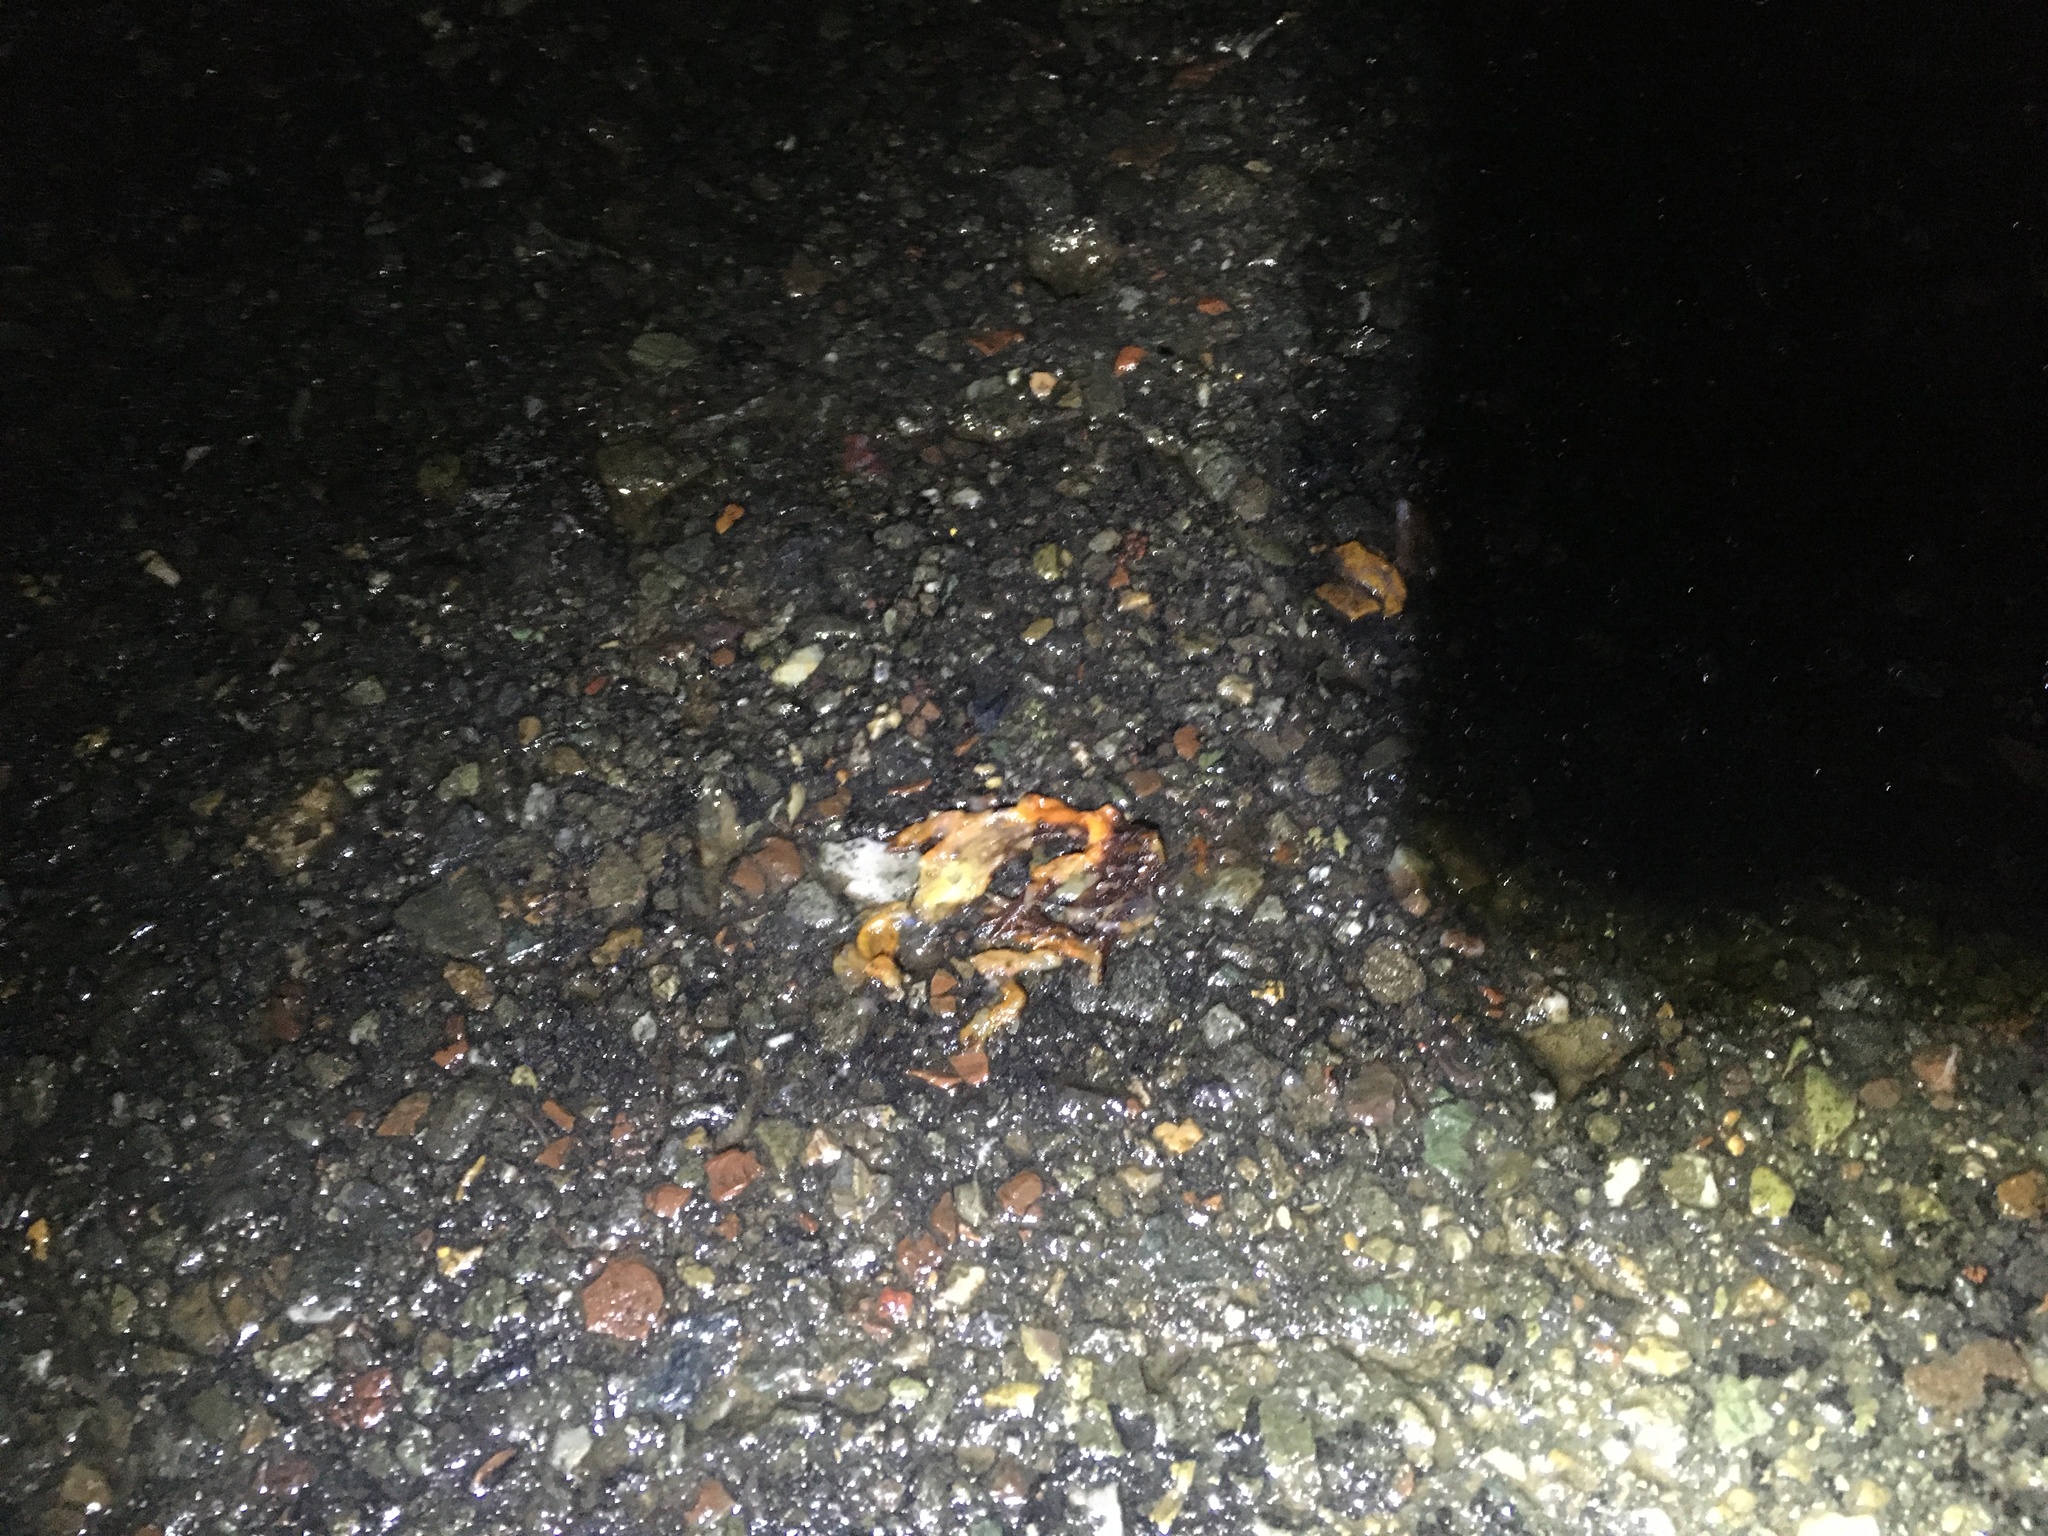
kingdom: Animalia
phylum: Chordata
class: Amphibia
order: Caudata
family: Salamandridae
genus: Taricha
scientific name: Taricha
